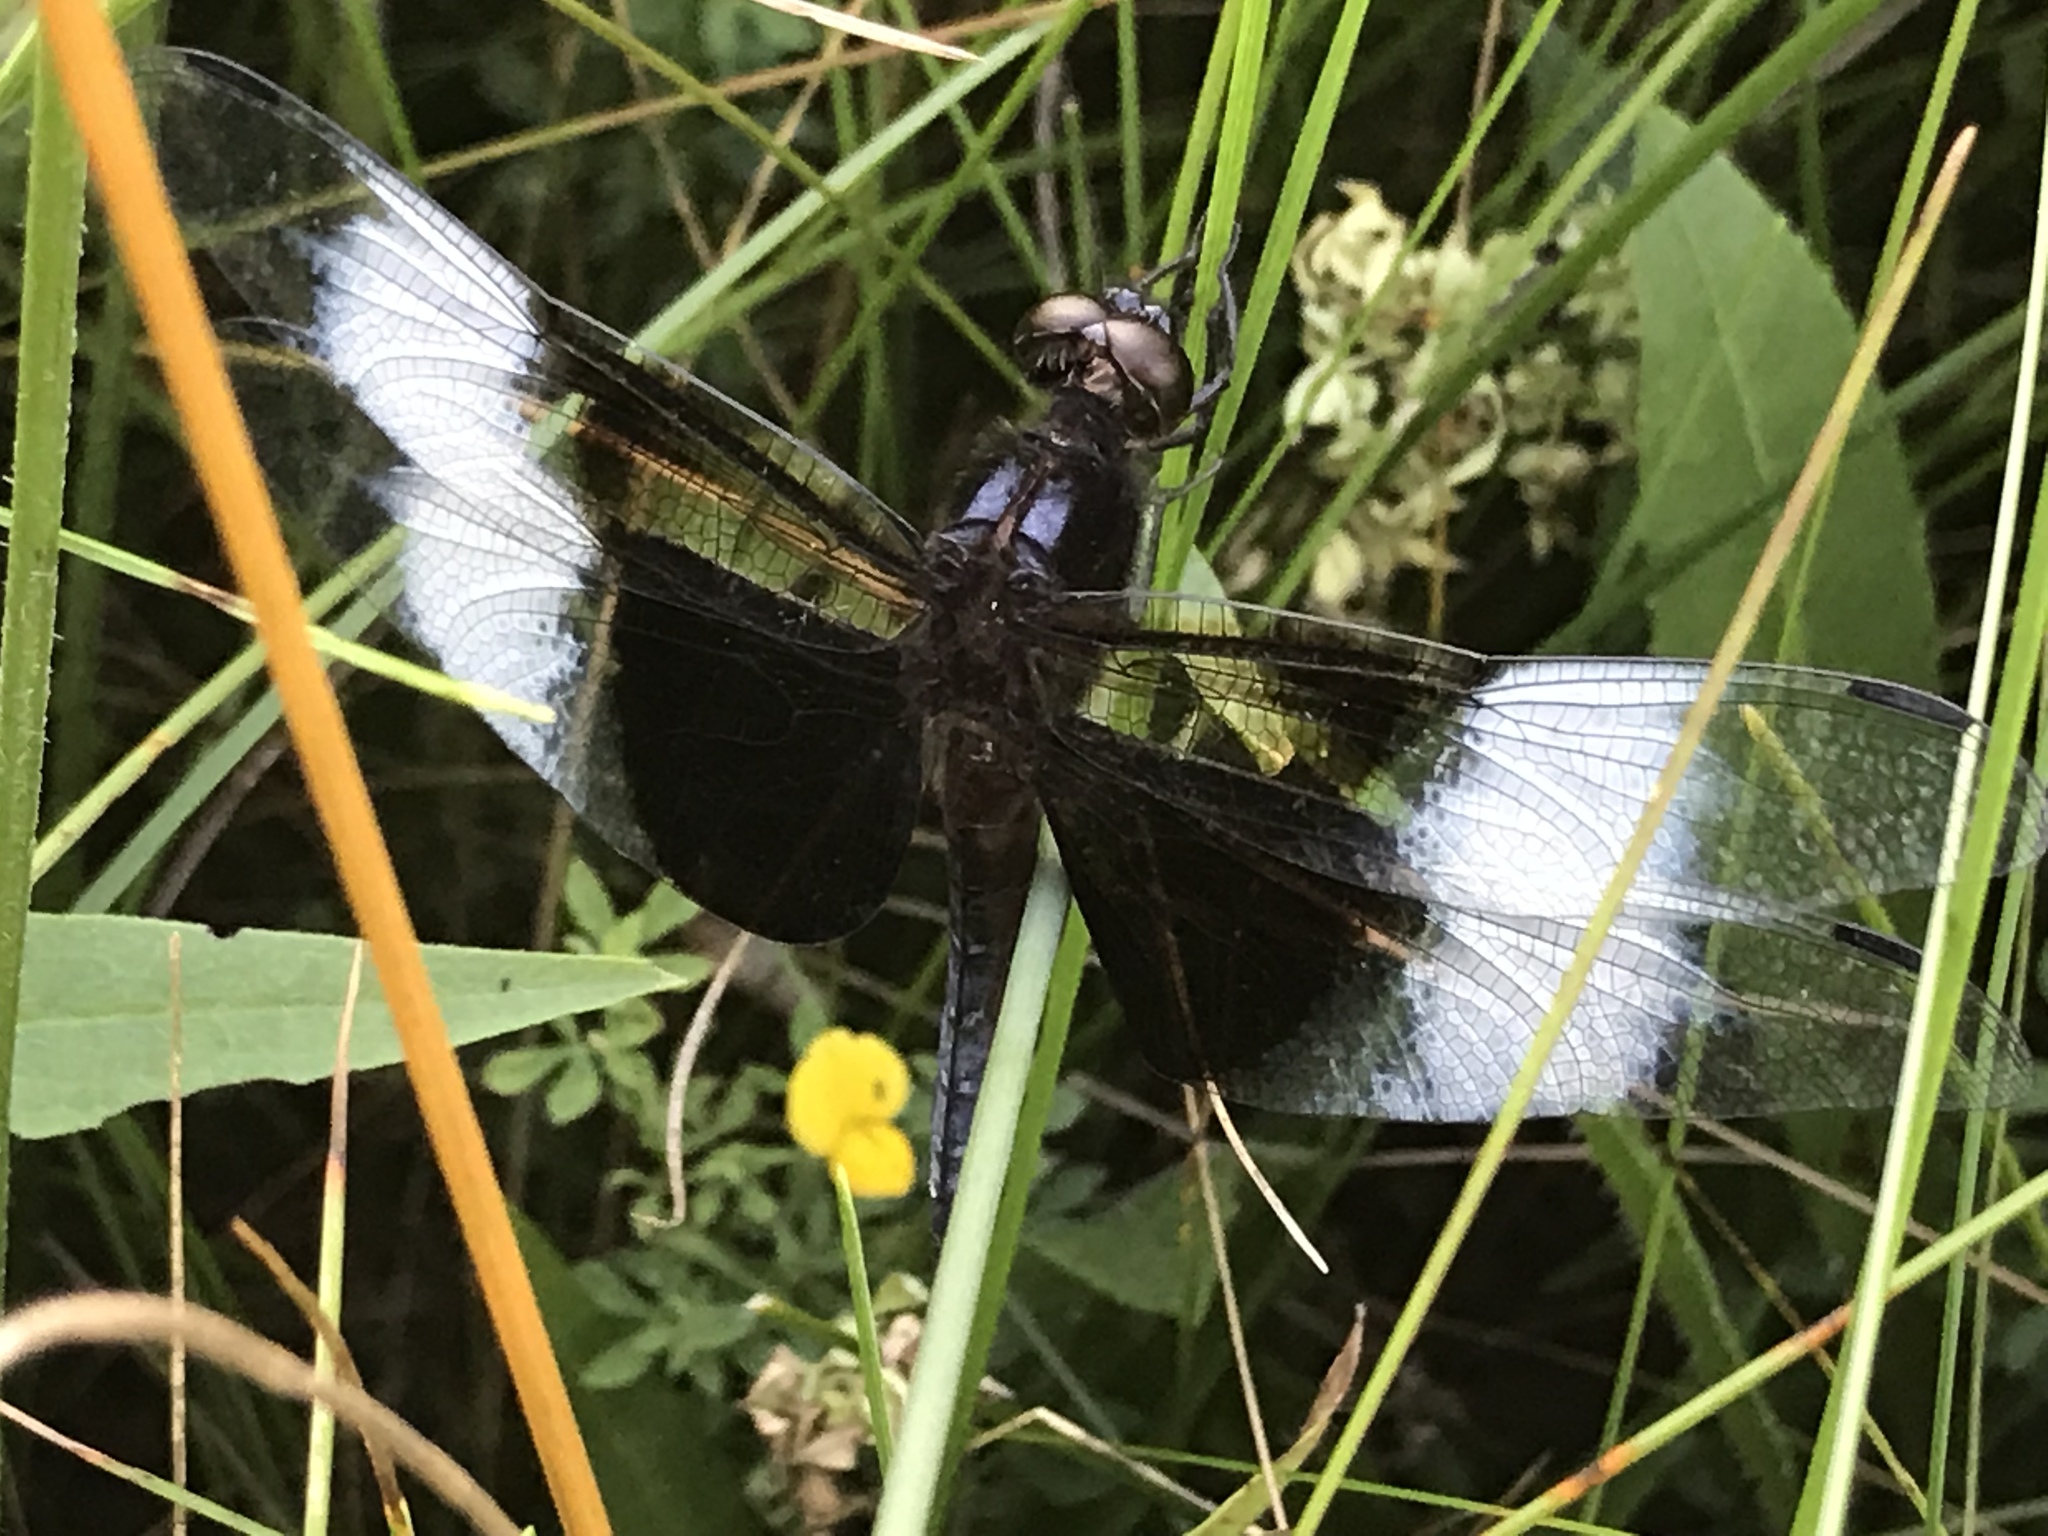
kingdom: Animalia
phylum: Arthropoda
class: Insecta
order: Odonata
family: Libellulidae
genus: Libellula
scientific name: Libellula luctuosa
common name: Widow skimmer
